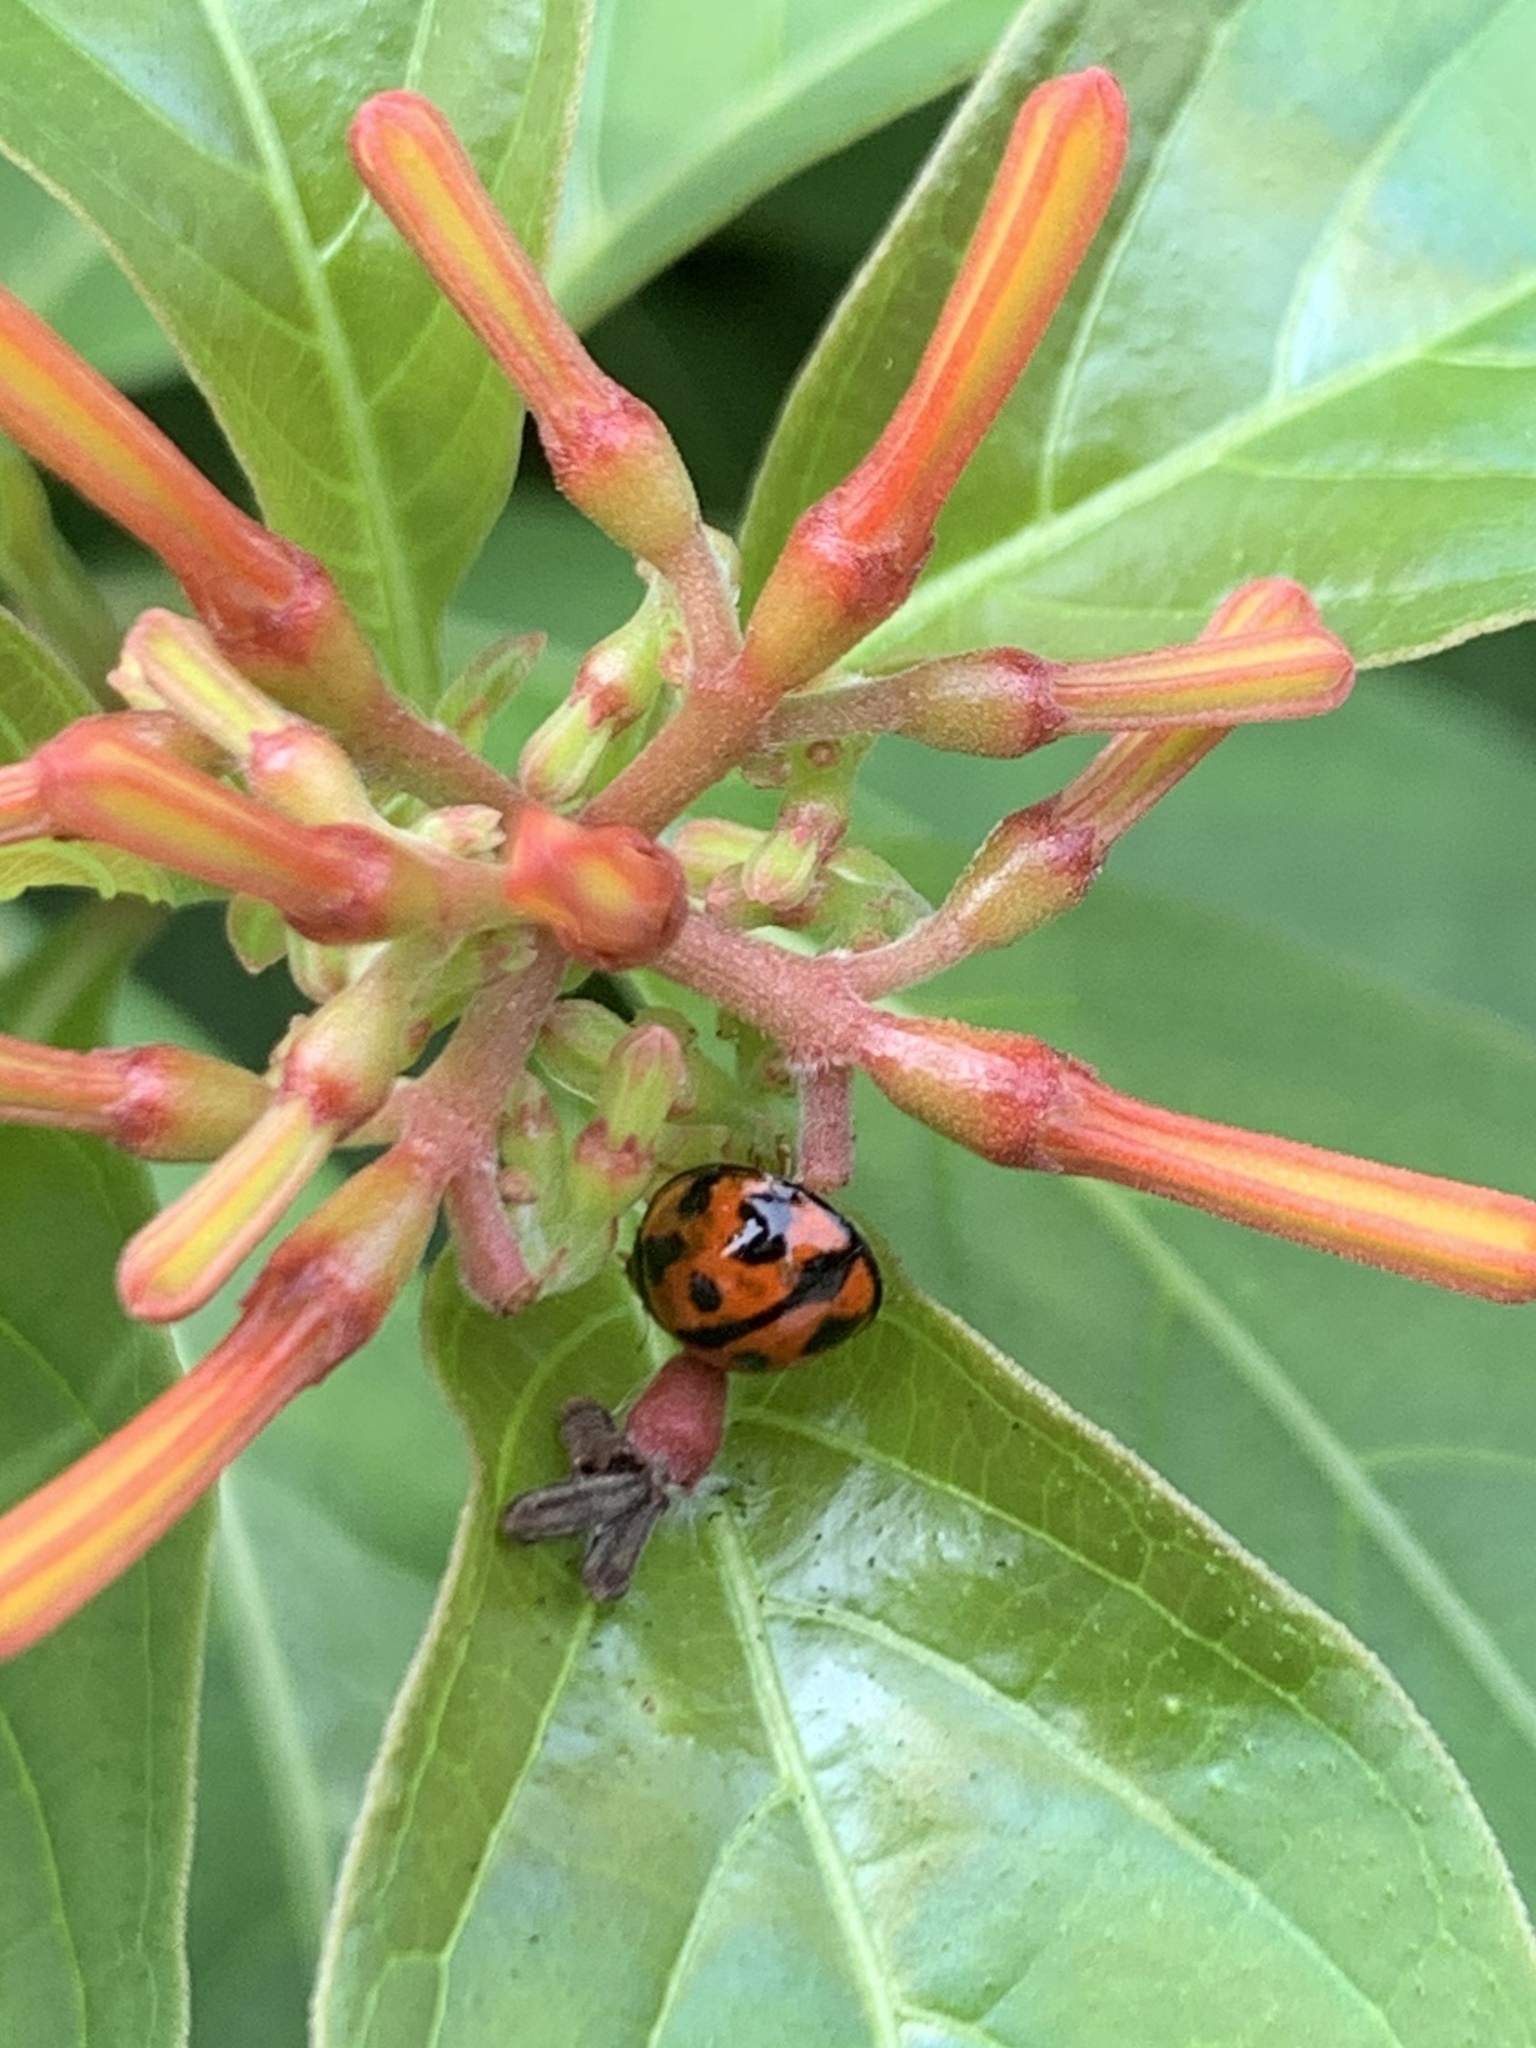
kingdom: Animalia
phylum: Arthropoda
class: Insecta
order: Coleoptera
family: Coccinellidae
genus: Coelophora
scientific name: Coelophora inaequalis
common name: Common australian lady beetle
